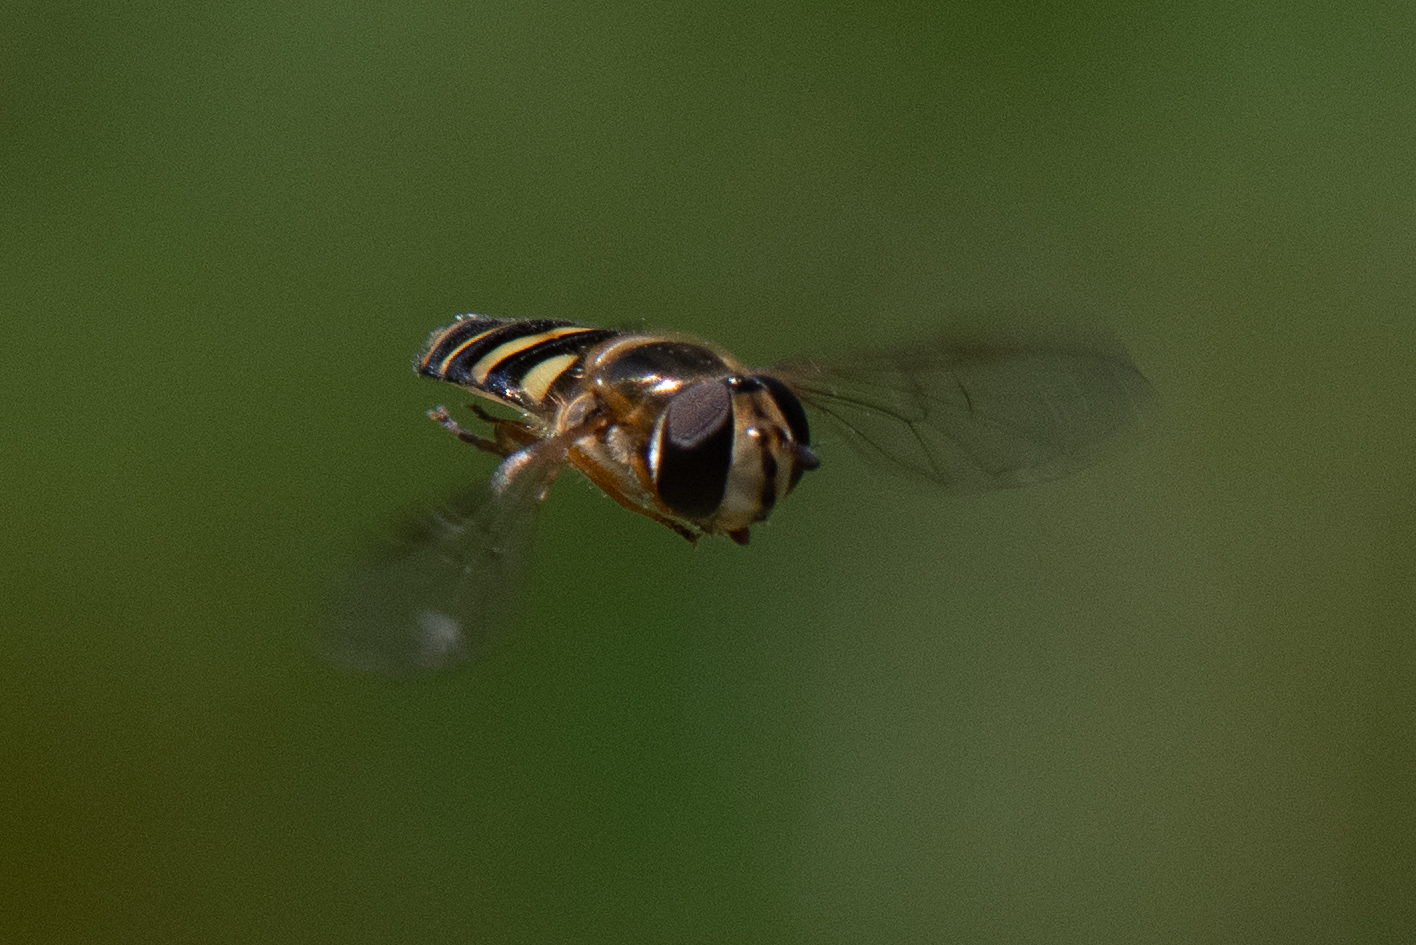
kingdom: Animalia
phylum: Arthropoda
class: Insecta
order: Diptera
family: Syrphidae
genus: Eupeodes
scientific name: Eupeodes fumipennis
